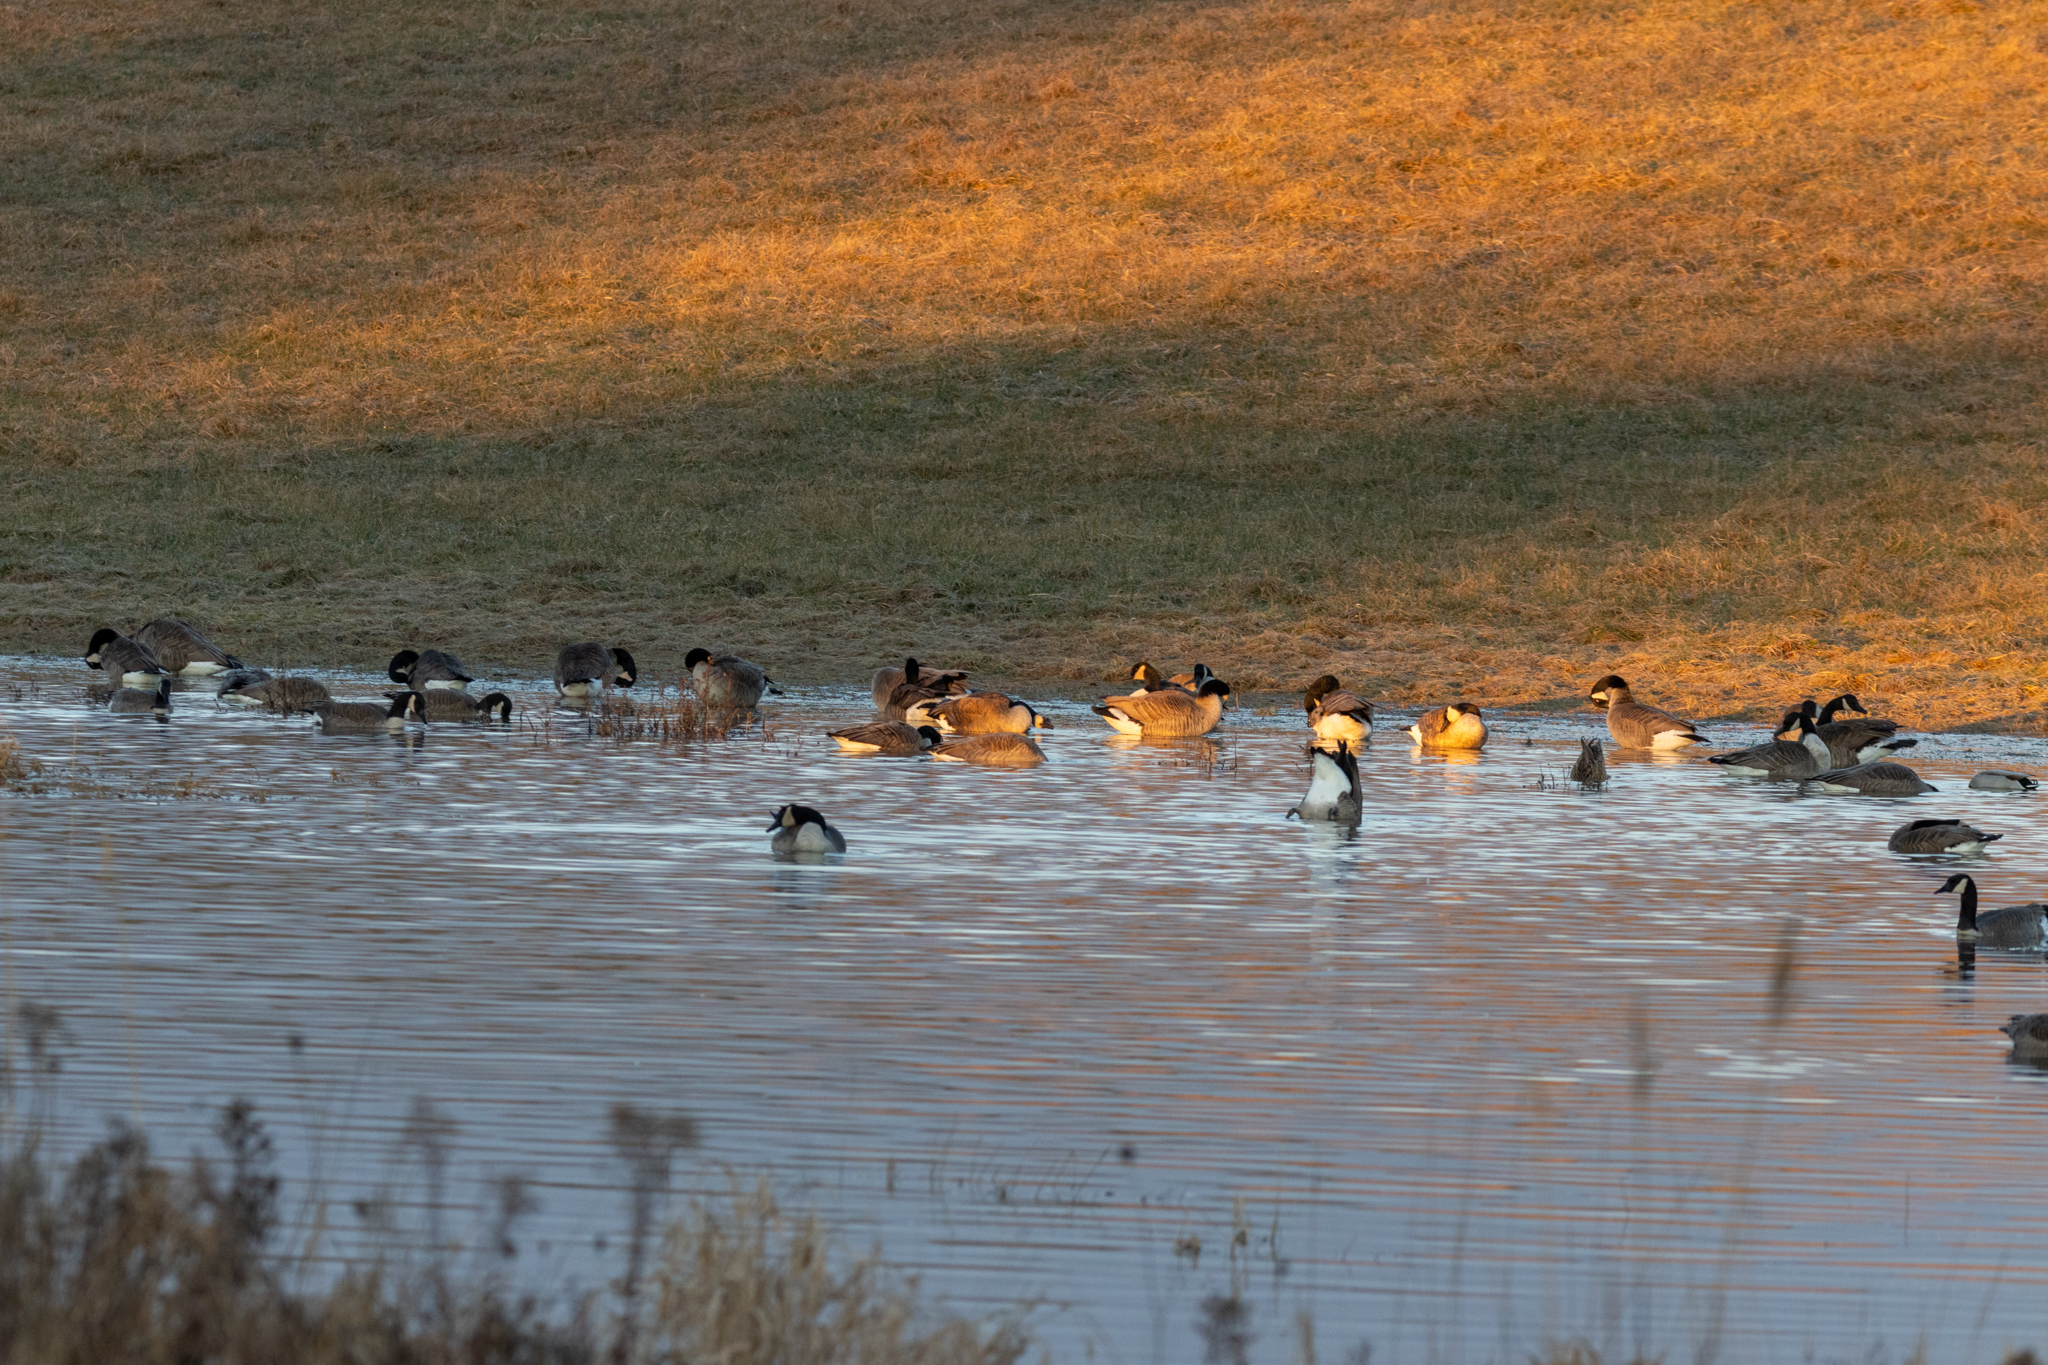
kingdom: Animalia
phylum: Chordata
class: Aves
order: Anseriformes
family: Anatidae
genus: Branta
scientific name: Branta canadensis
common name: Canada goose
